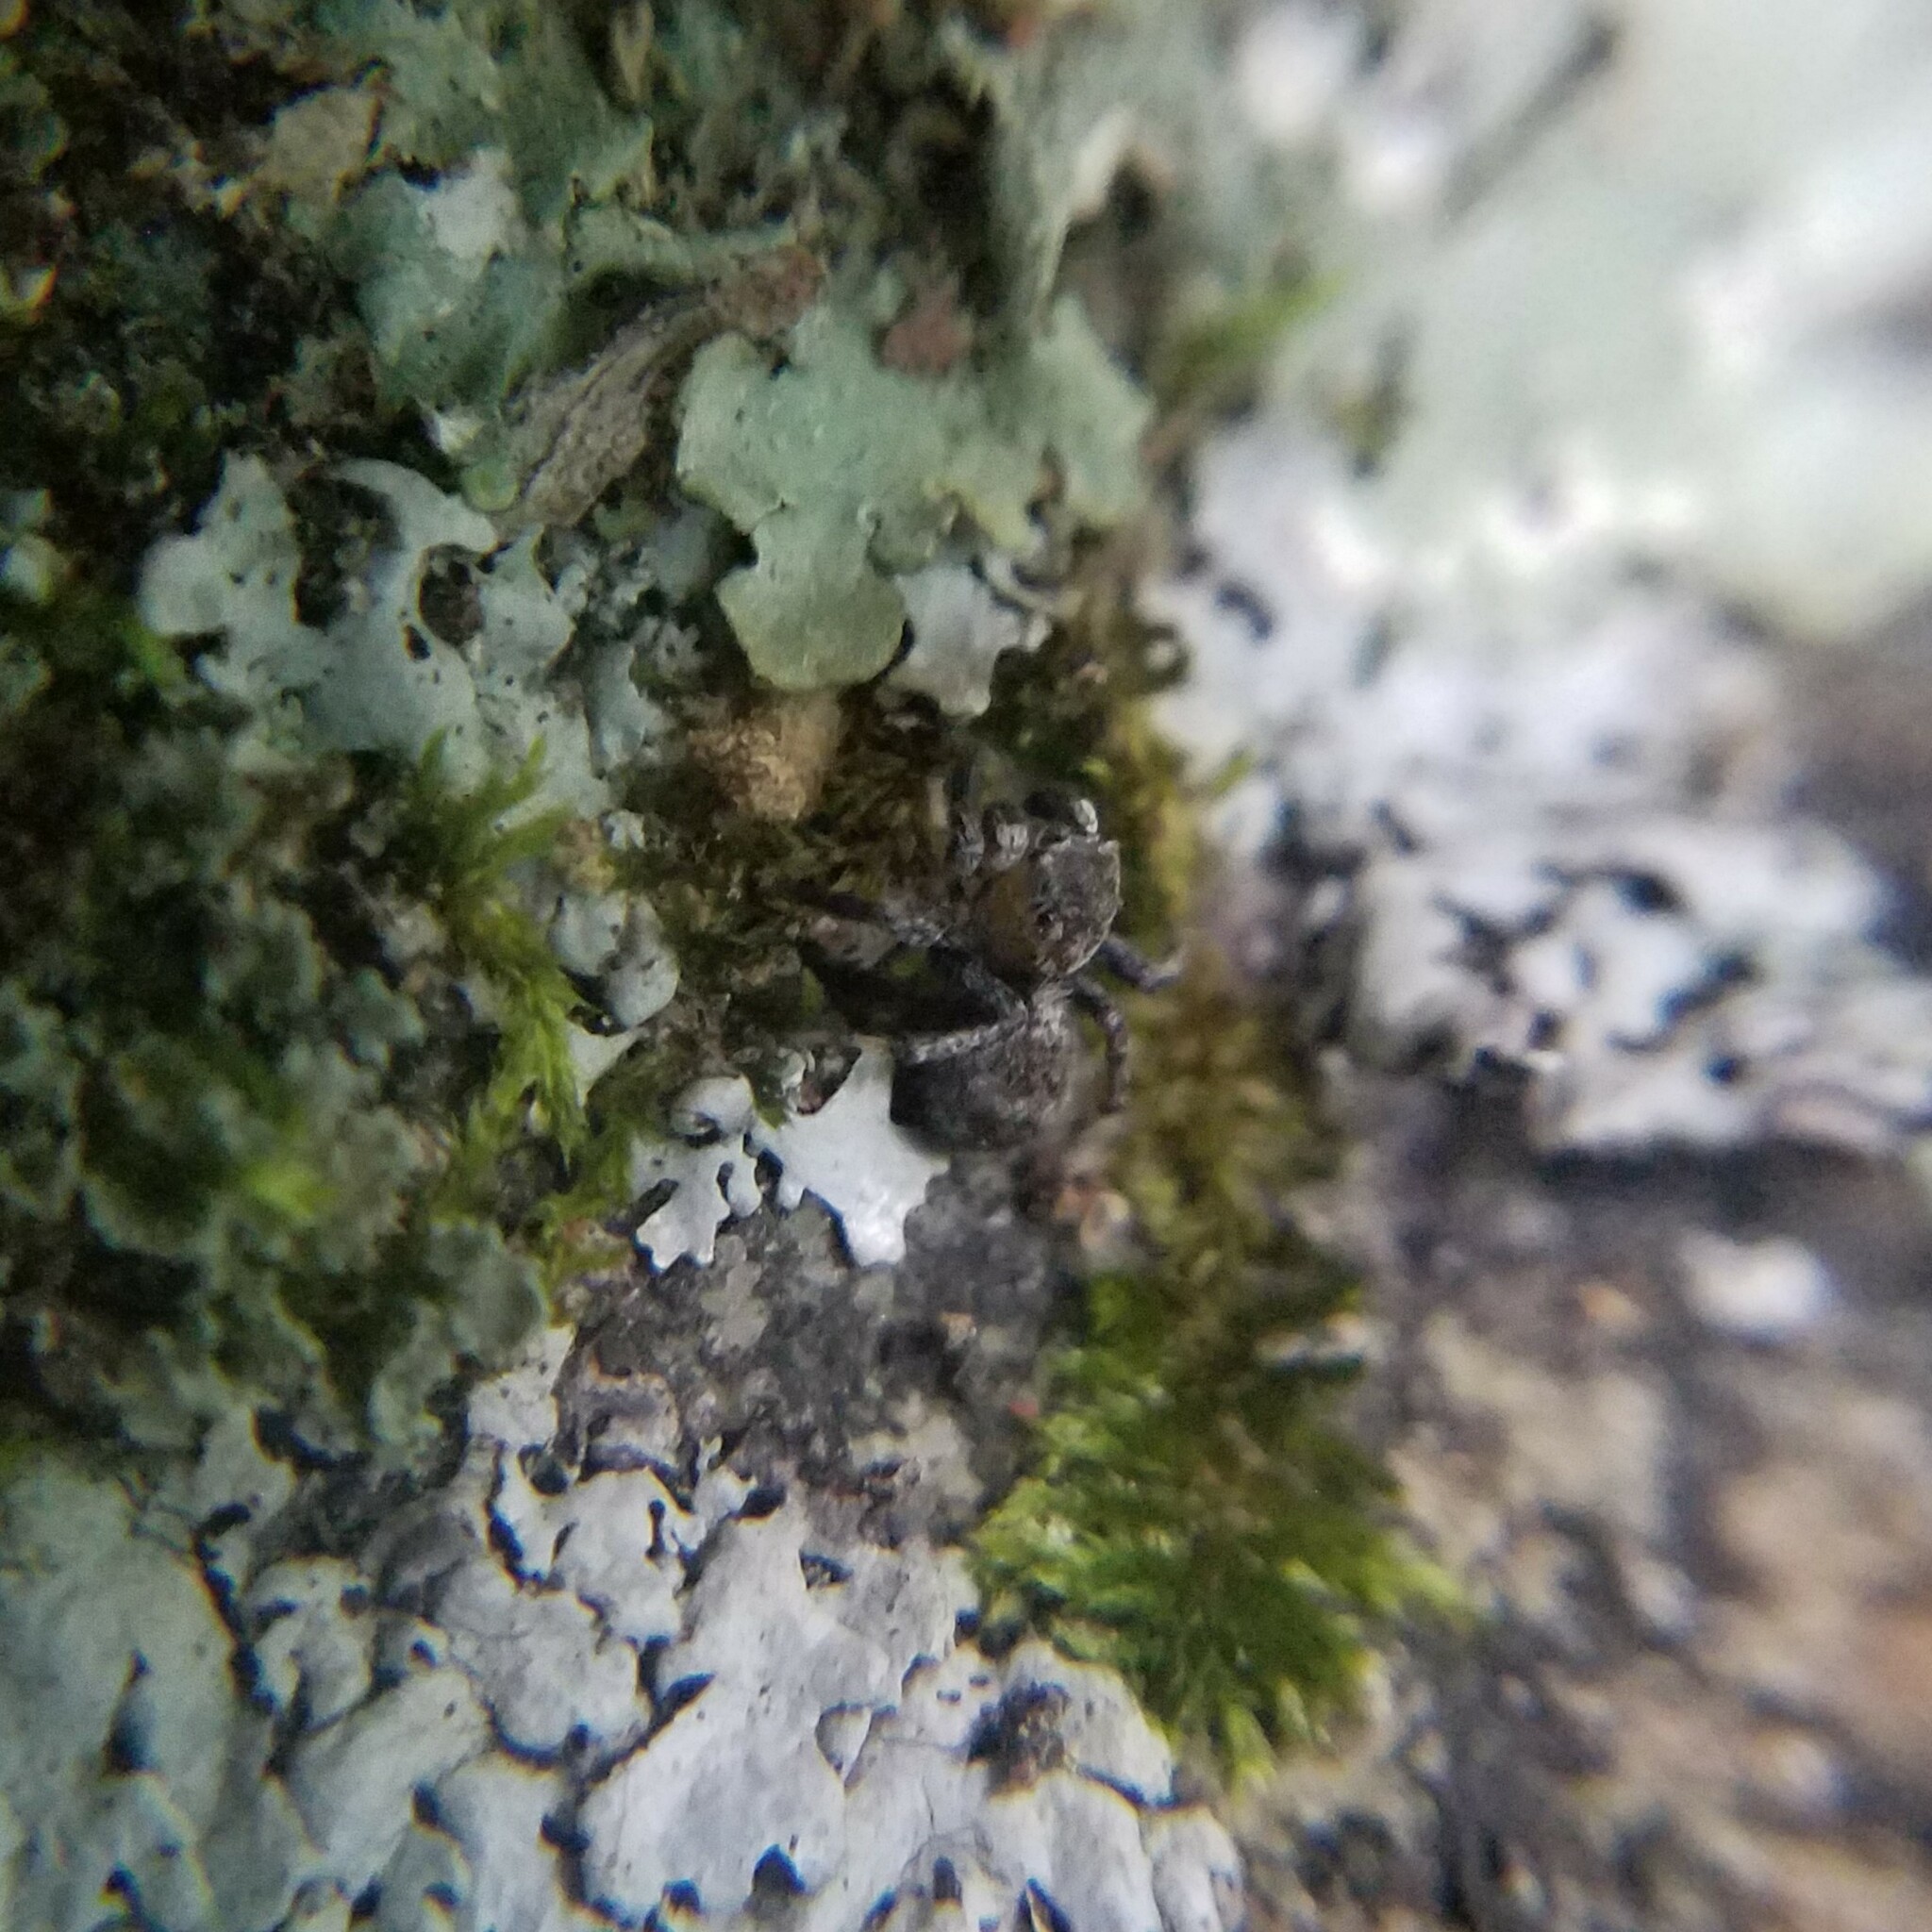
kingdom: Animalia
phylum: Arthropoda
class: Arachnida
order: Araneae
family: Salticidae
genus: Naphrys
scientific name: Naphrys pulex
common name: Flea jumping spider
